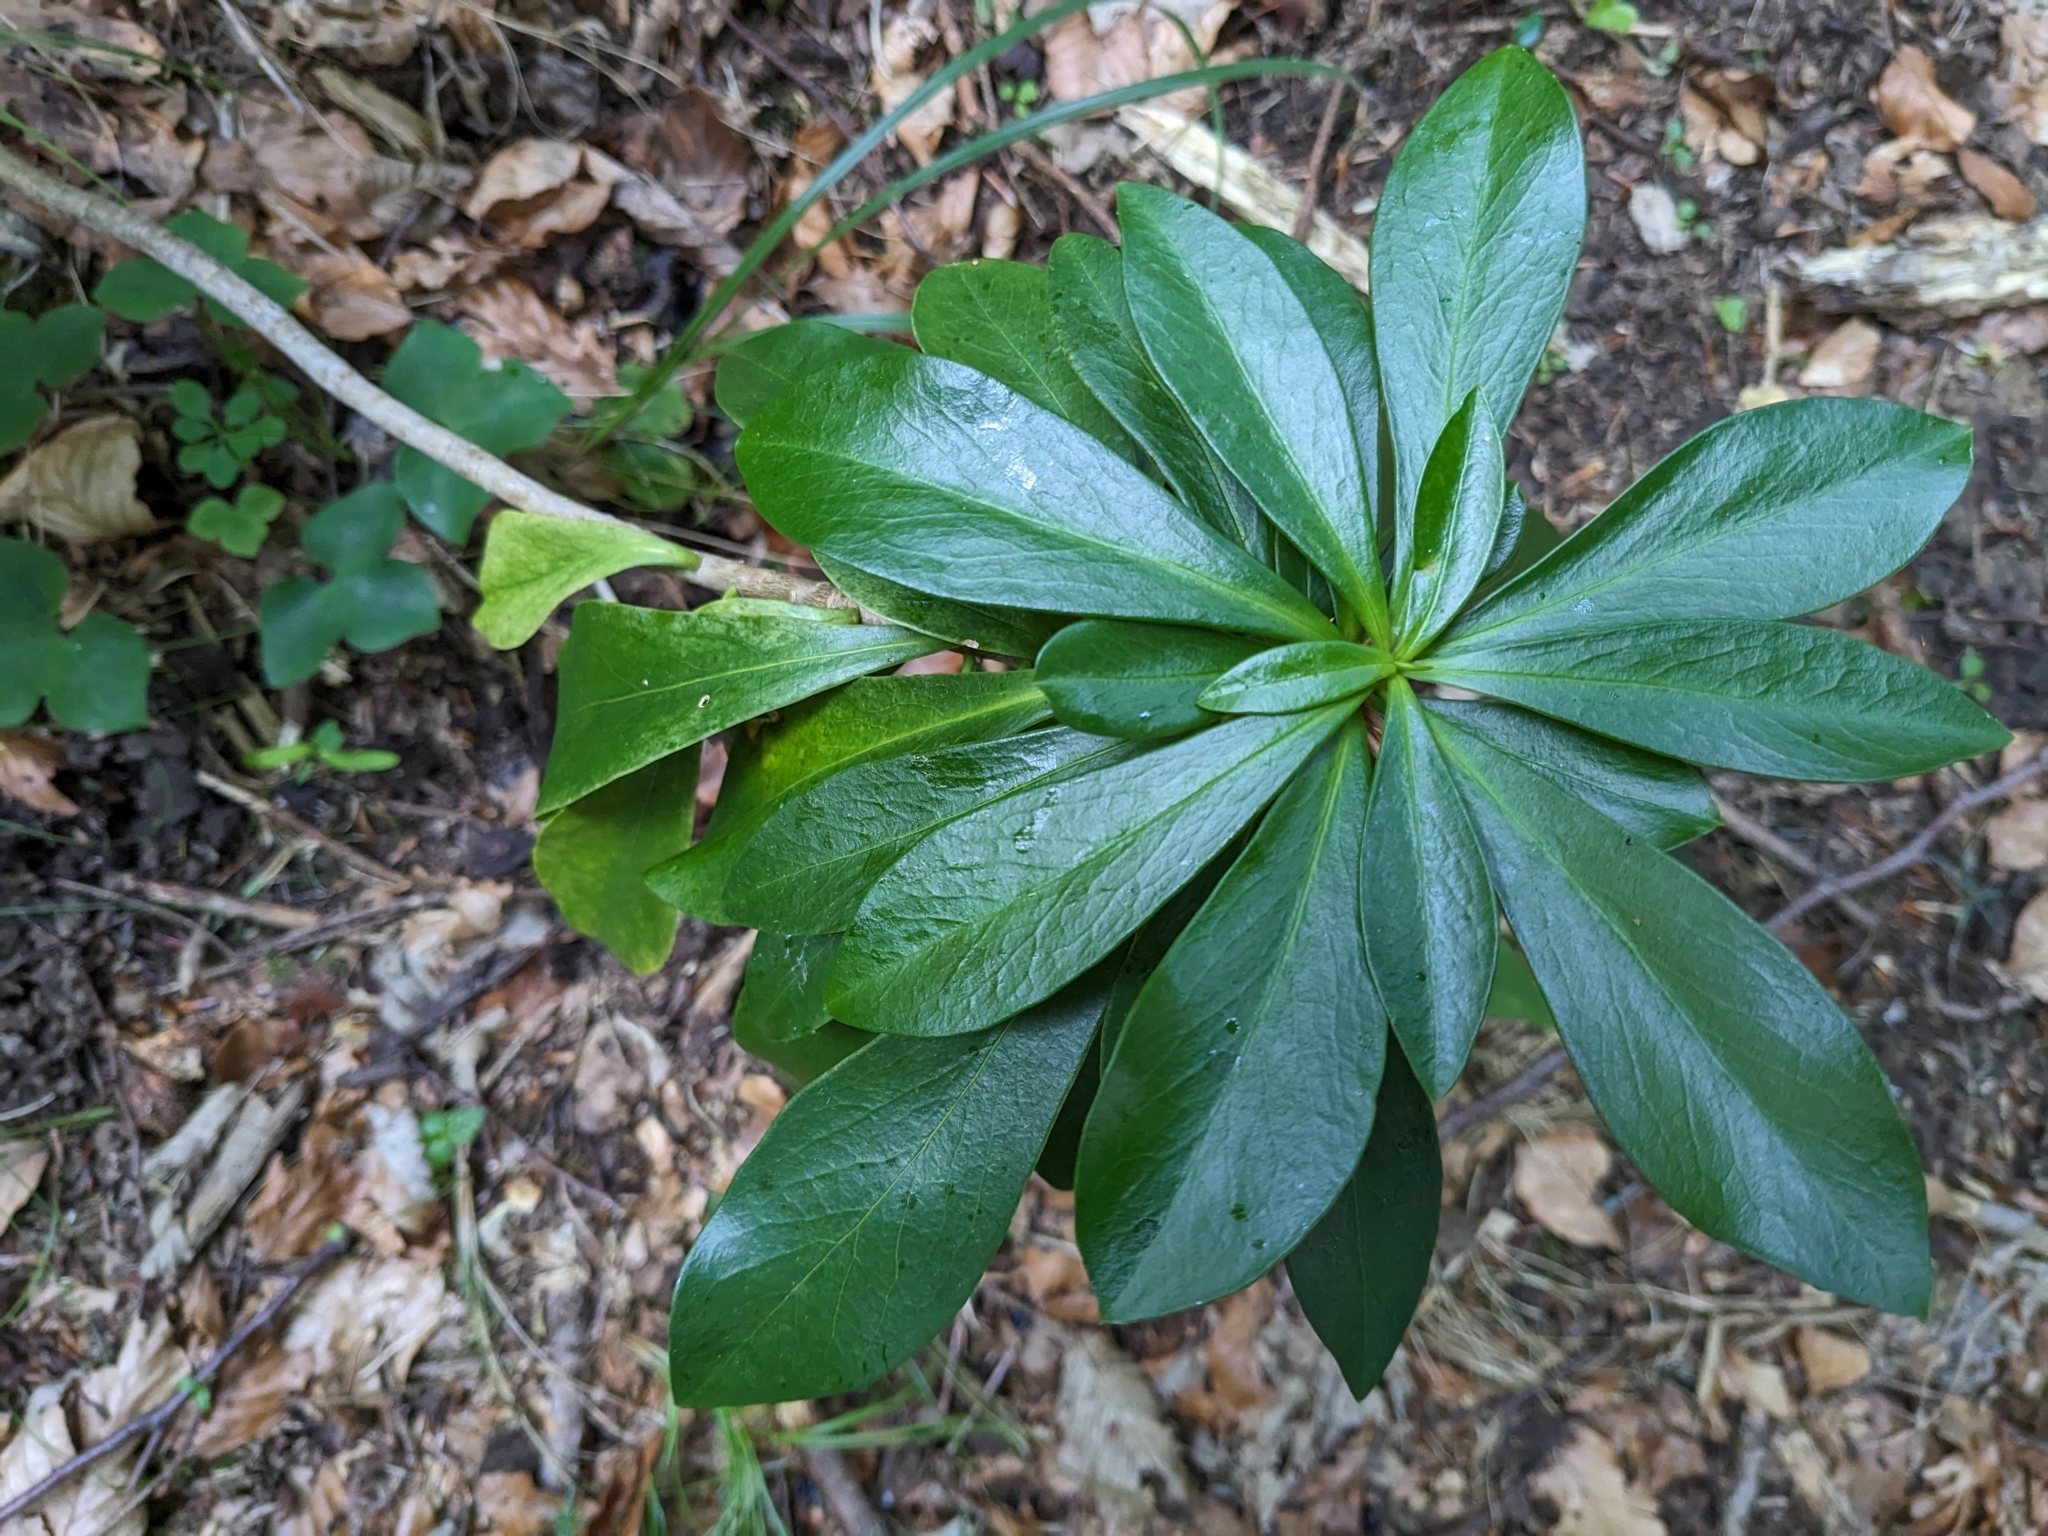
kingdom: Plantae
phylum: Tracheophyta
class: Magnoliopsida
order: Malvales
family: Thymelaeaceae
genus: Daphne
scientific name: Daphne laureola
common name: Spurge-laurel
